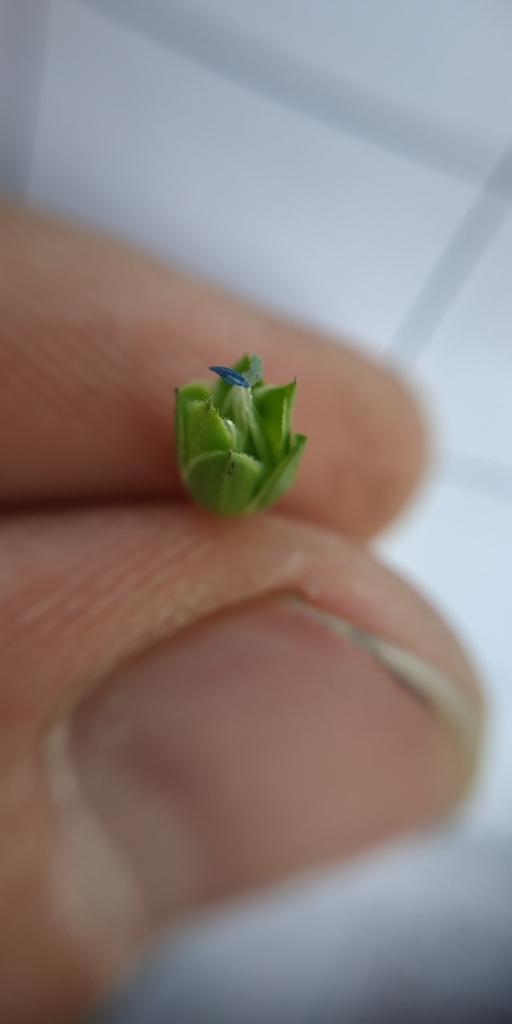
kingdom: Plantae
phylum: Tracheophyta
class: Magnoliopsida
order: Malpighiales
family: Linaceae
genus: Linum
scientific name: Linum usitatissimum
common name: Flax
